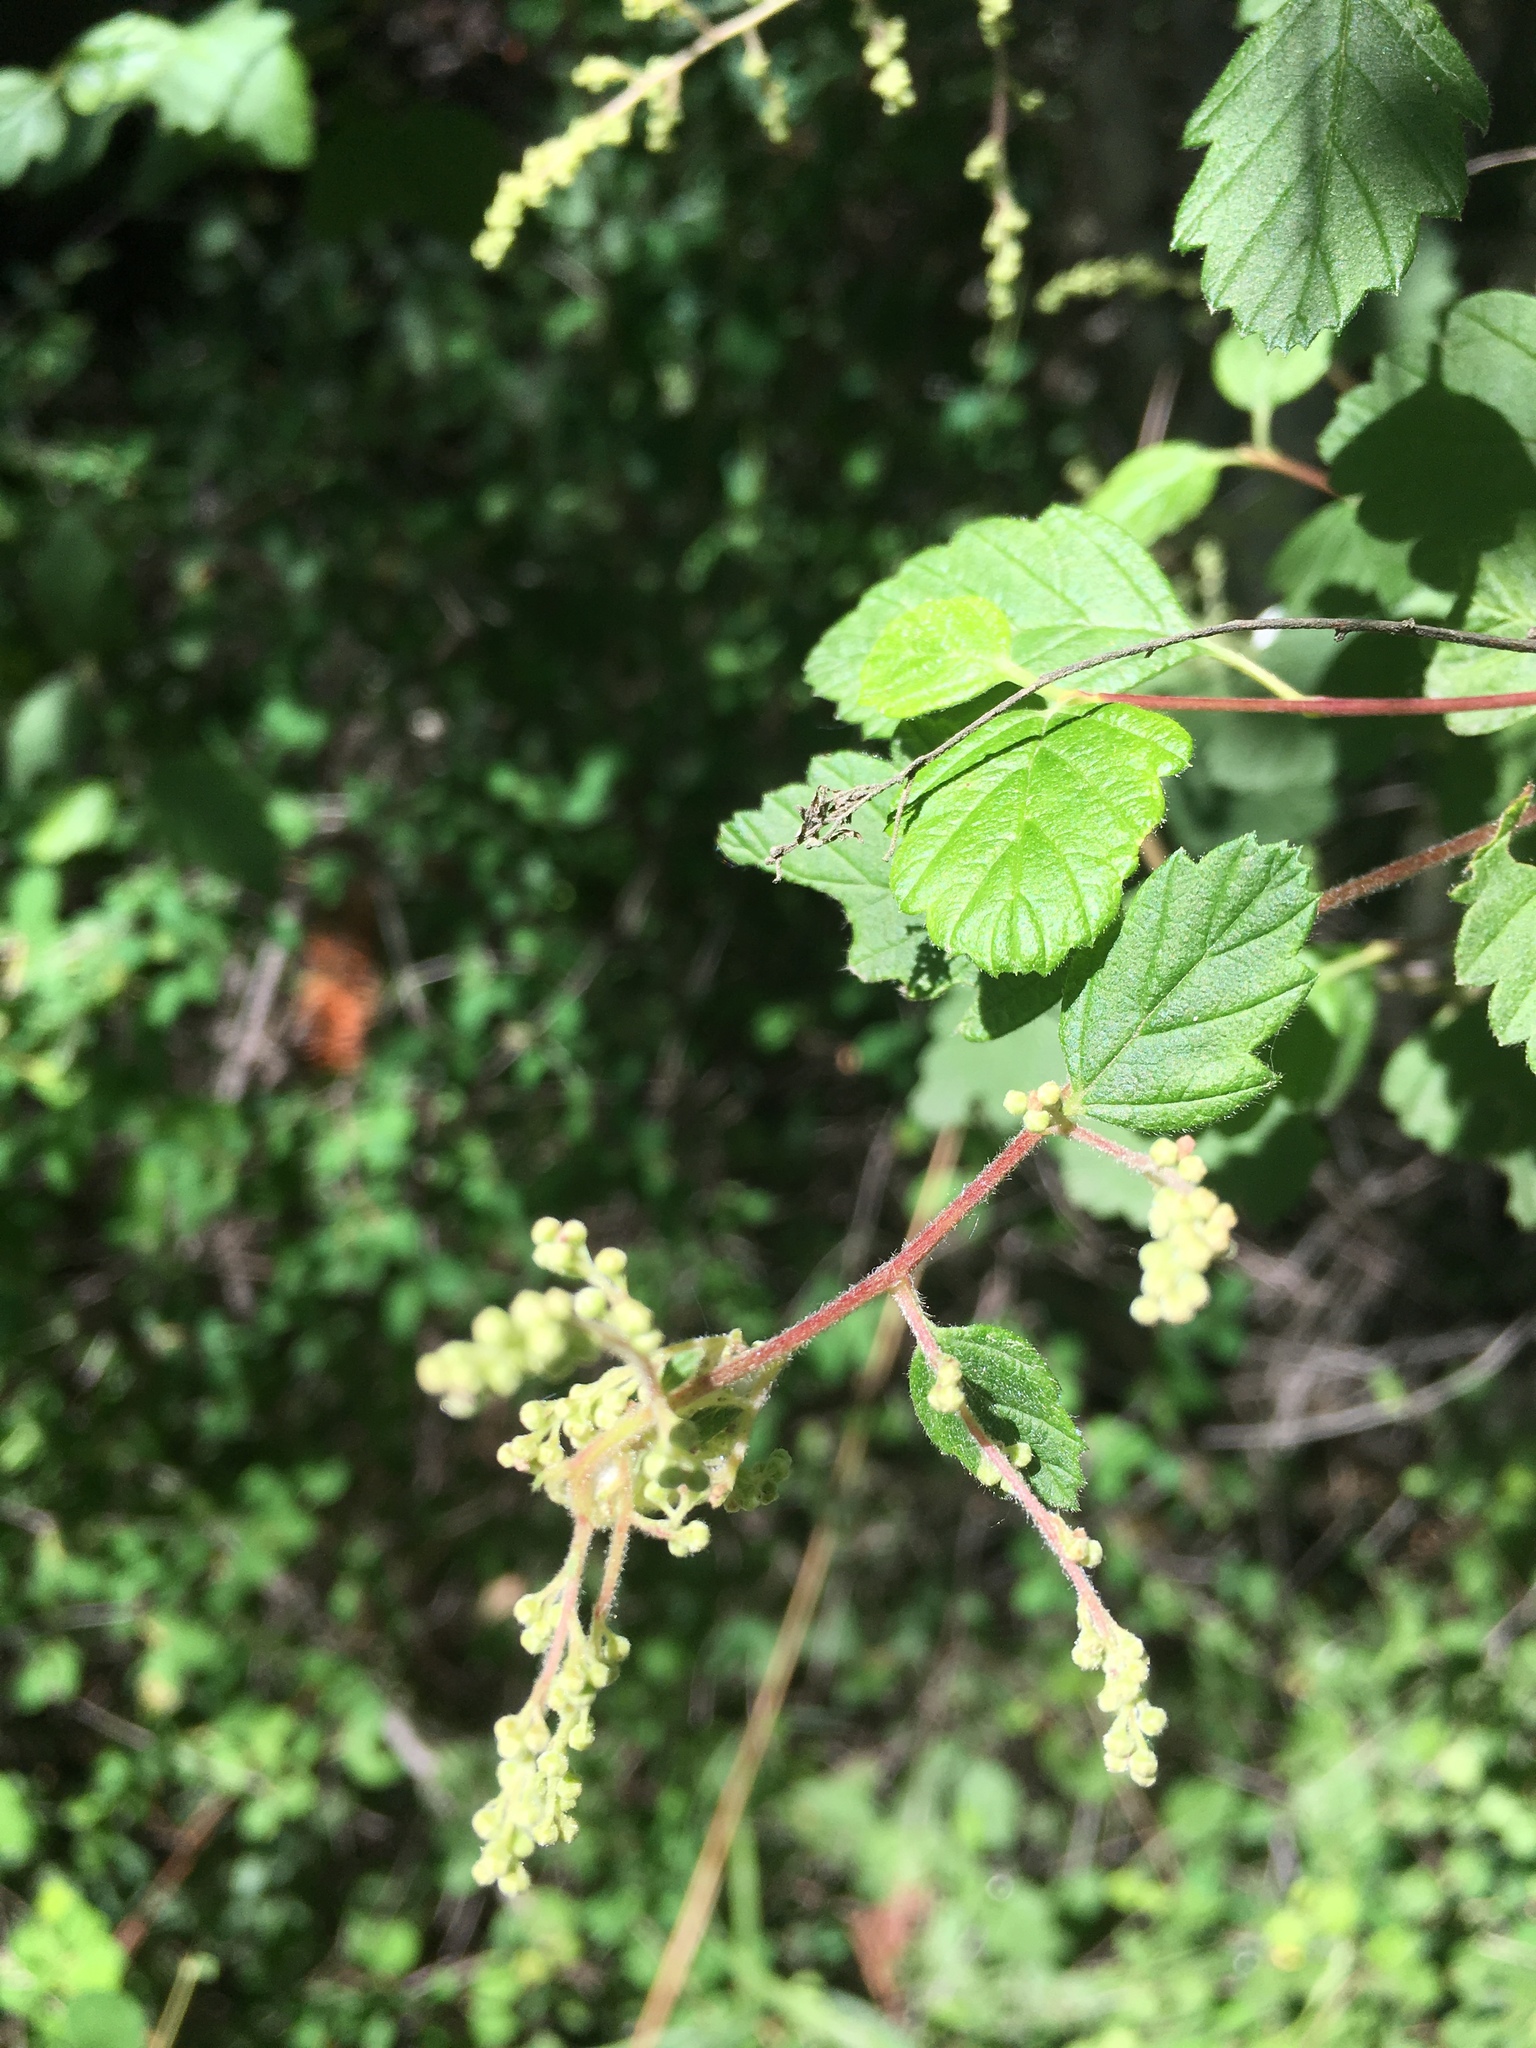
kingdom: Plantae
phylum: Tracheophyta
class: Magnoliopsida
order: Rosales
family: Rosaceae
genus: Holodiscus
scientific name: Holodiscus discolor
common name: Oceanspray
